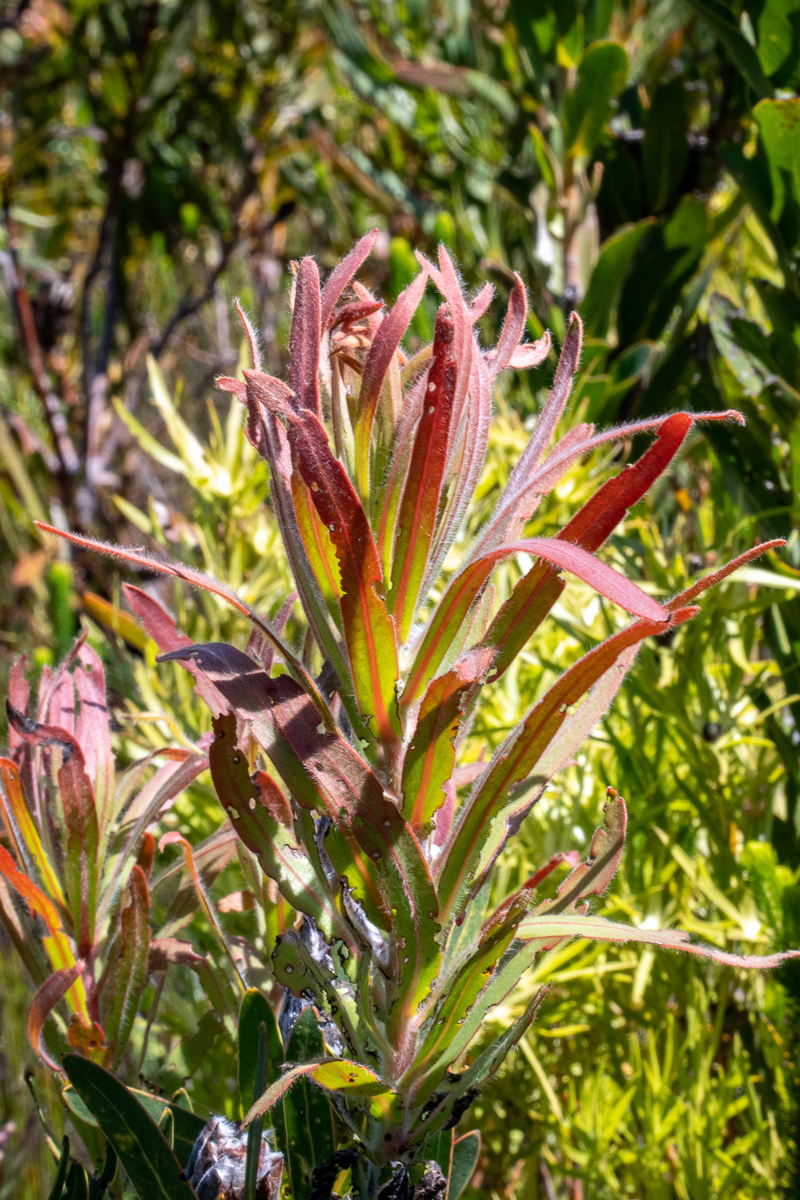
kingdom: Plantae
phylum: Tracheophyta
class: Magnoliopsida
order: Proteales
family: Proteaceae
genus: Protea
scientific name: Protea lepidocarpodendron
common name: Black-bearded protea
